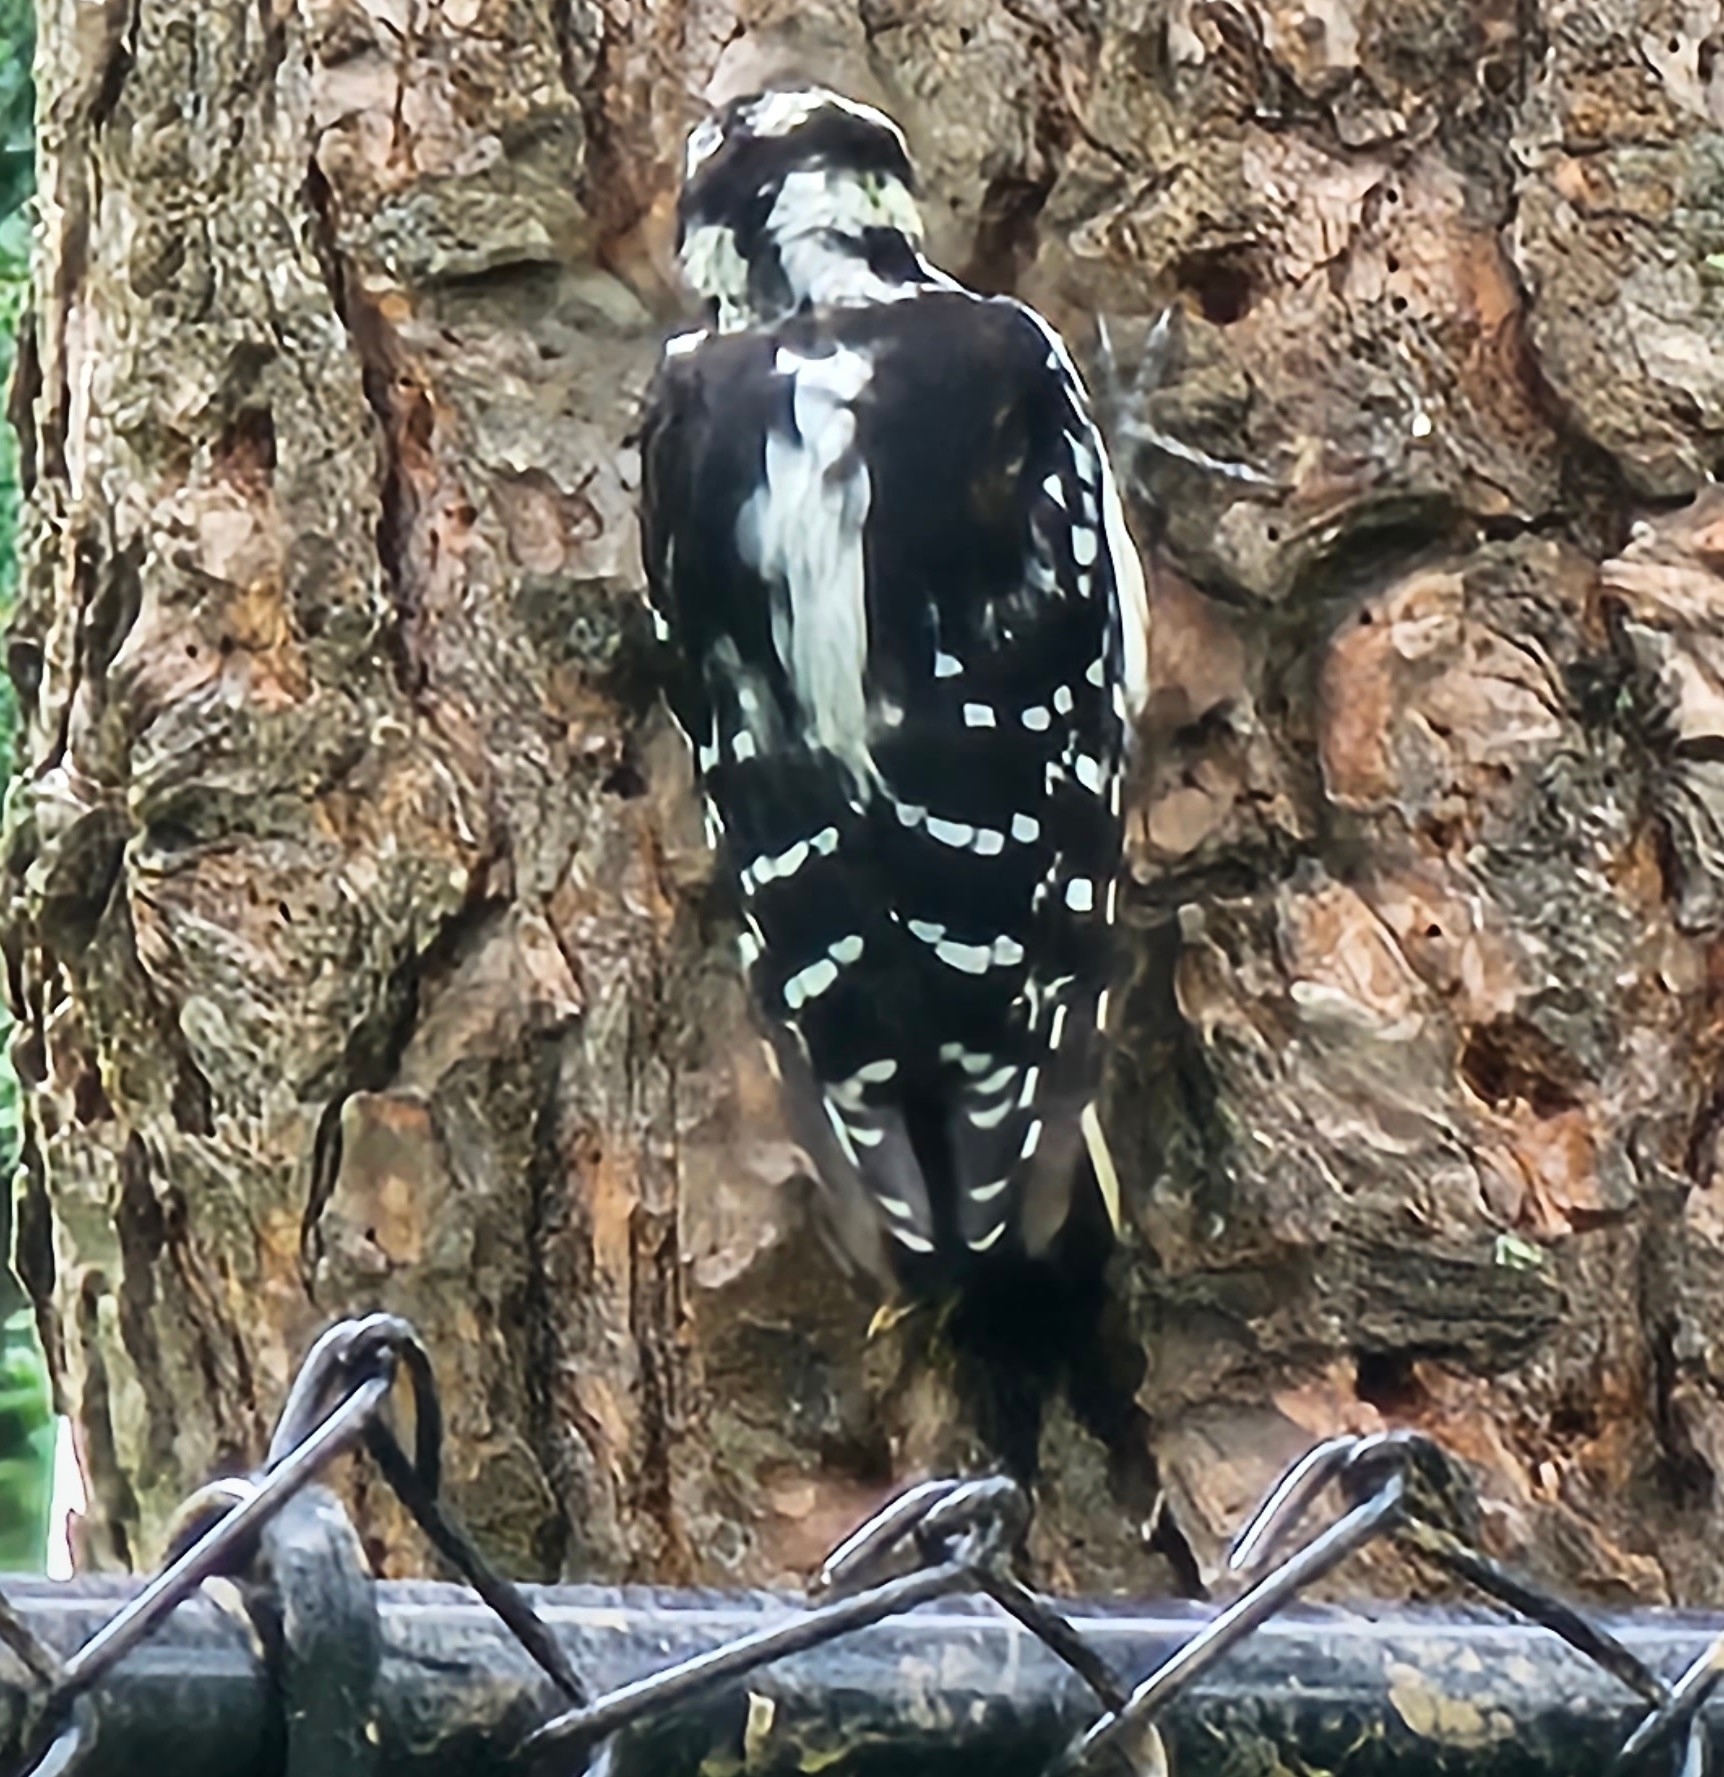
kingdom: Animalia
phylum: Chordata
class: Aves
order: Piciformes
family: Picidae
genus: Leuconotopicus
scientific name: Leuconotopicus villosus
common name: Hairy woodpecker
